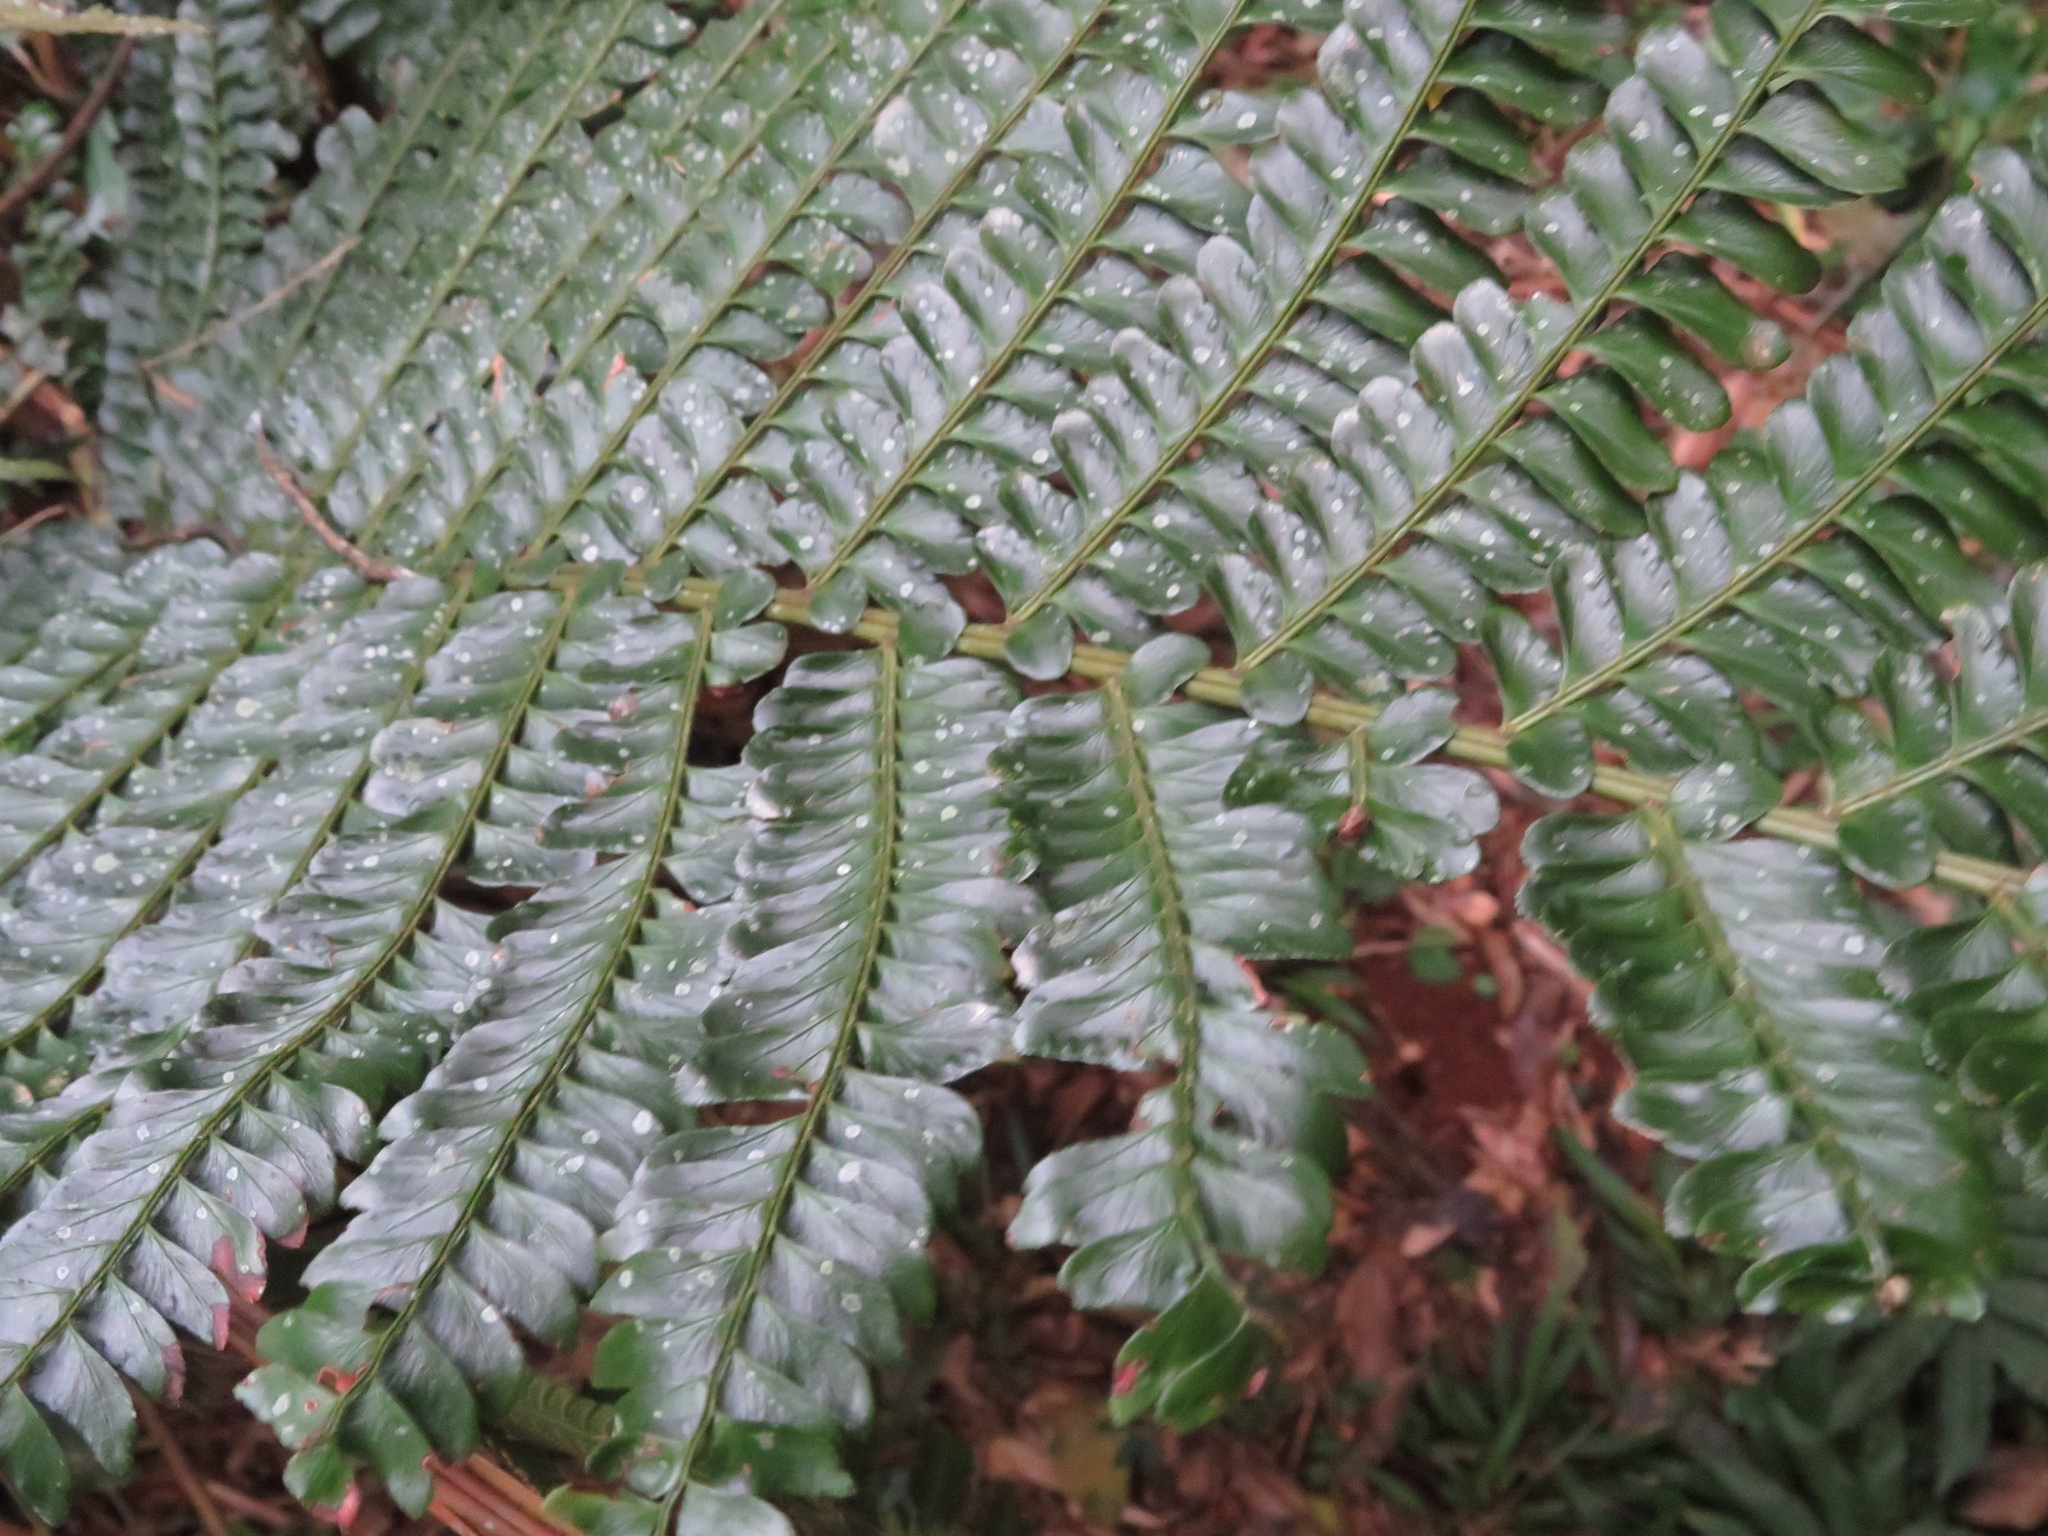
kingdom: Plantae
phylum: Tracheophyta
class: Polypodiopsida
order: Polypodiales
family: Didymochlaenaceae
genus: Didymochlaena
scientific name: Didymochlaena truncatula
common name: Mahogany fern
